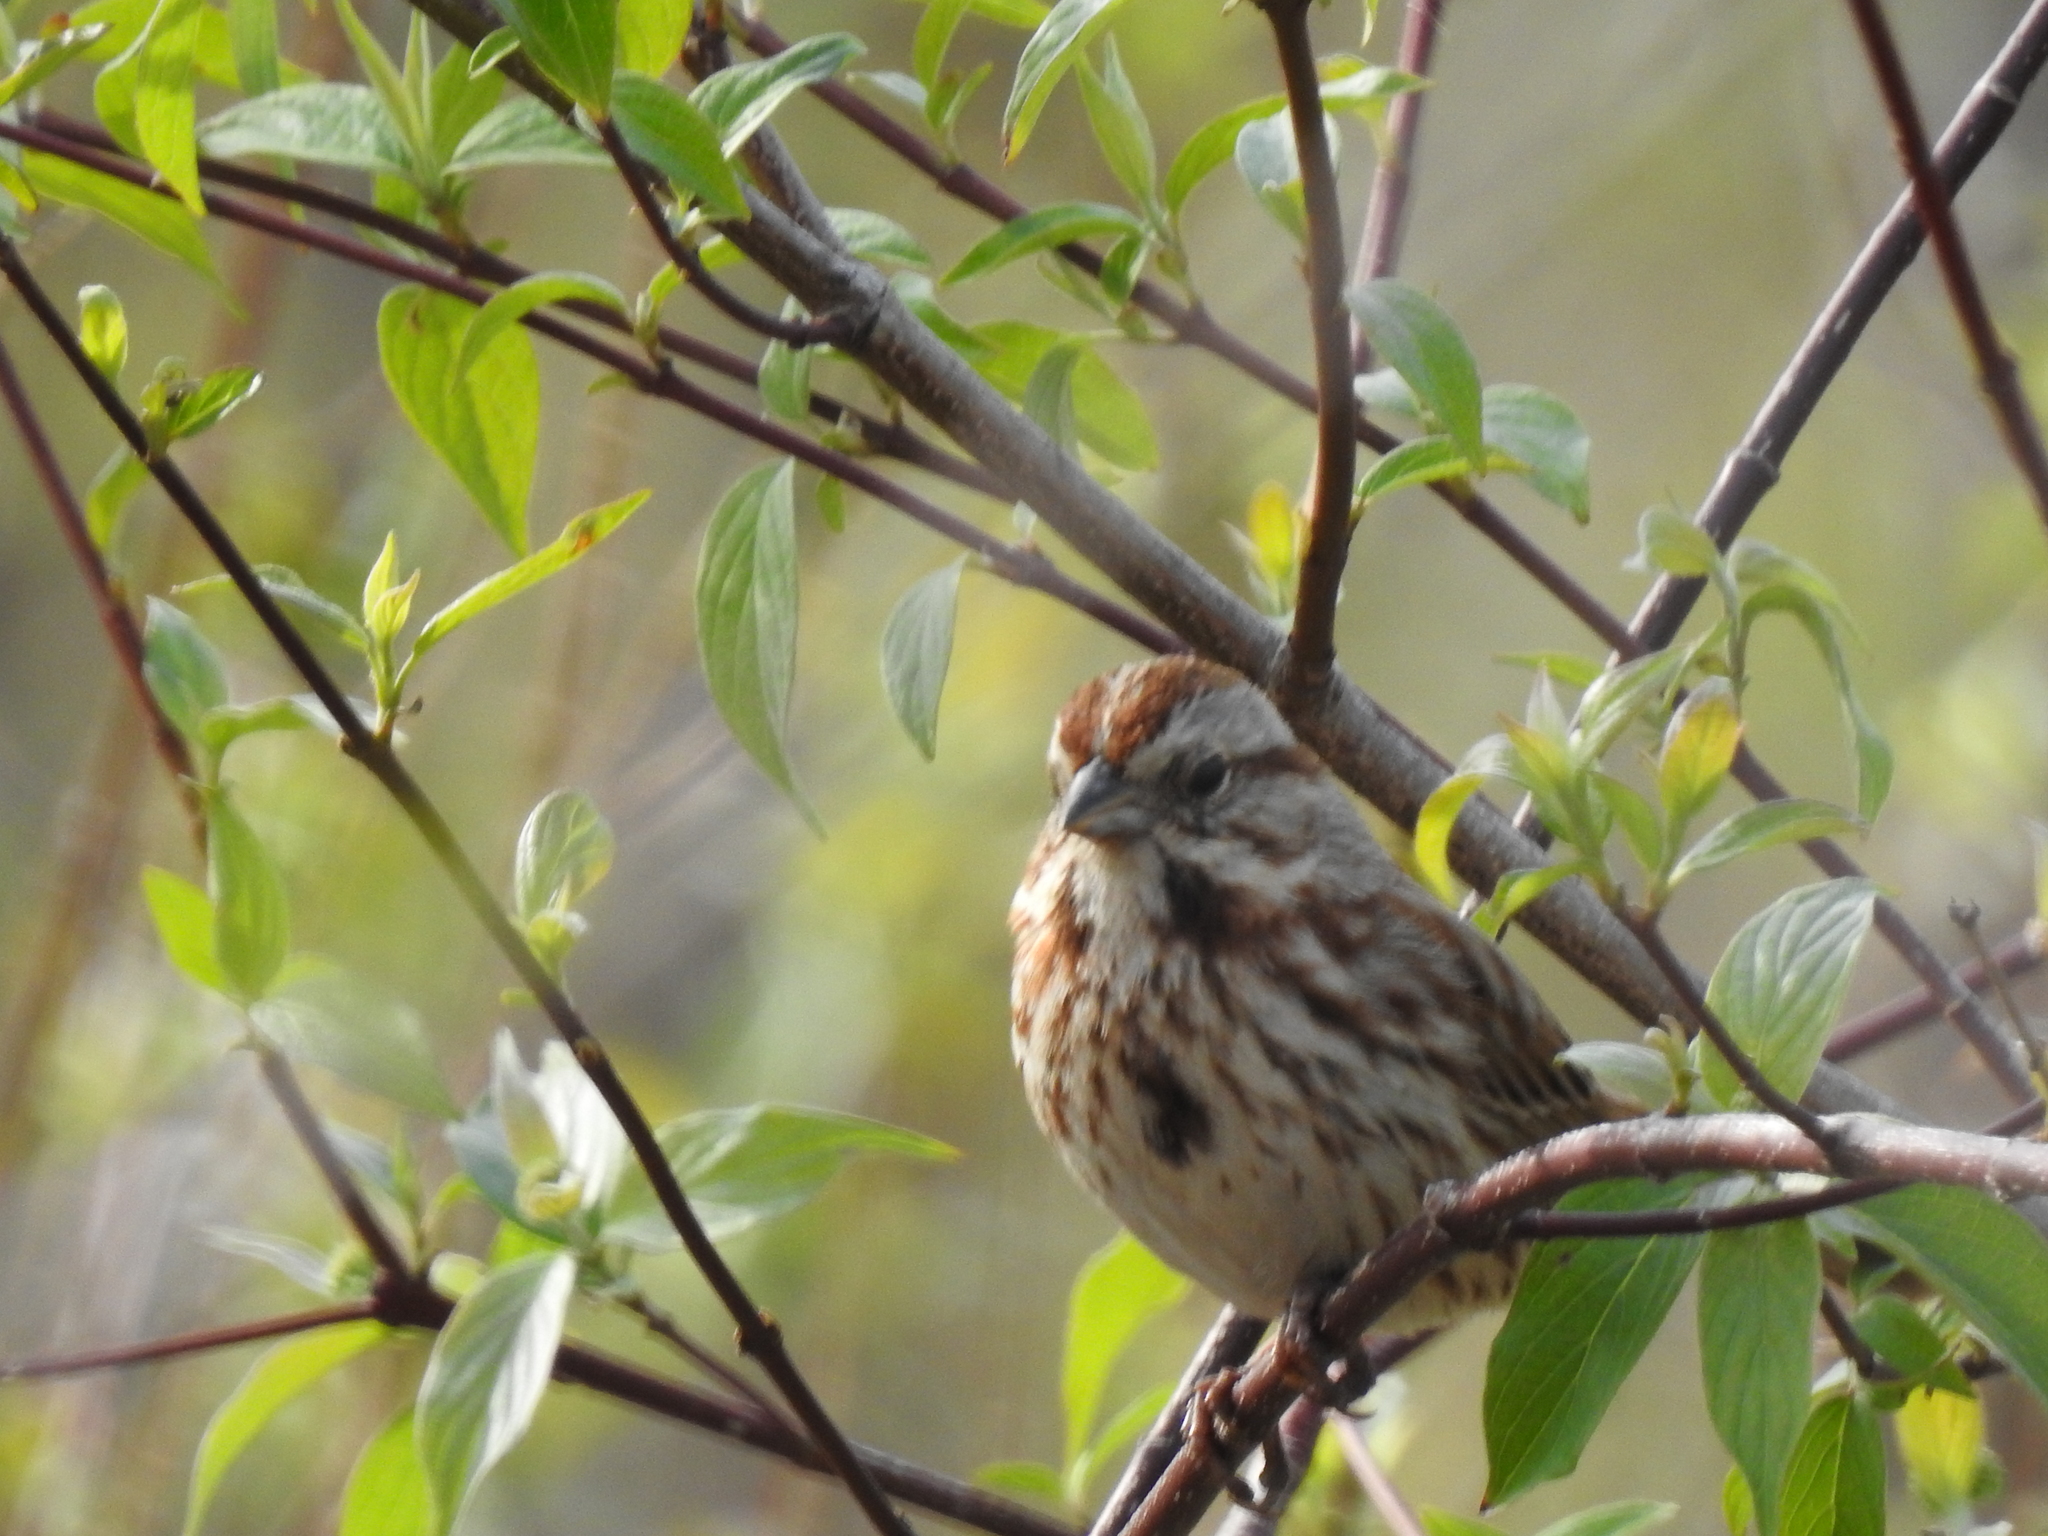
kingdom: Animalia
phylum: Chordata
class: Aves
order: Passeriformes
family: Passerellidae
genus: Melospiza
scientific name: Melospiza melodia
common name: Song sparrow
